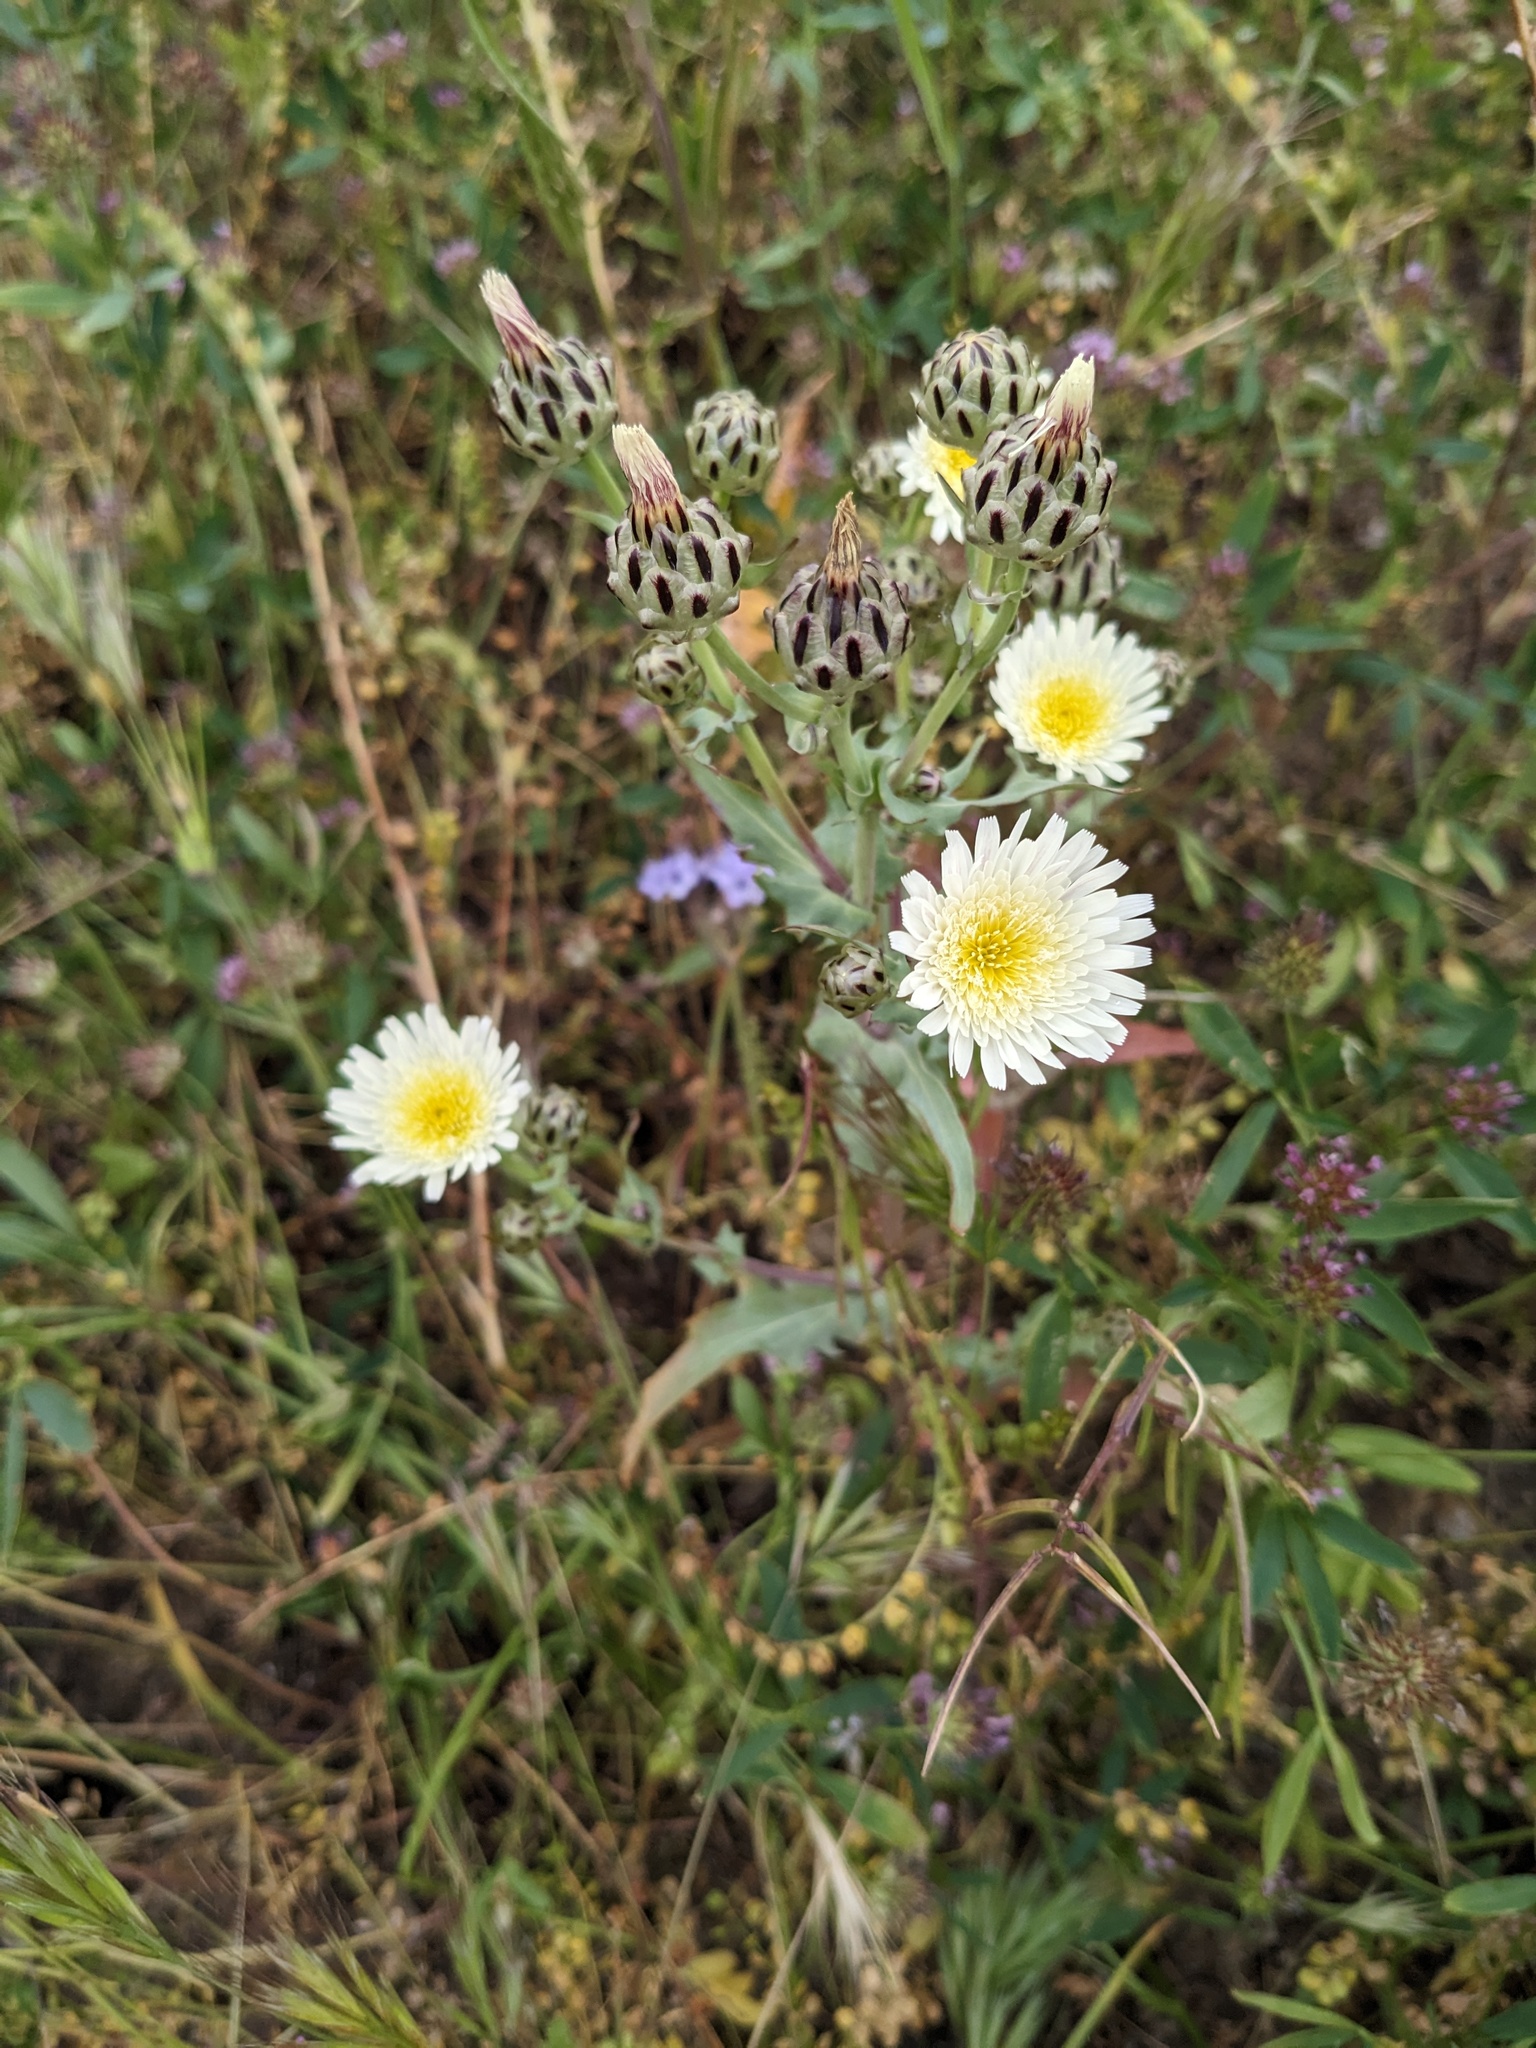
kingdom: Plantae
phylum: Tracheophyta
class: Magnoliopsida
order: Asterales
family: Asteraceae
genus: Malacothrix
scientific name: Malacothrix coulteri
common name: Snake's-head
